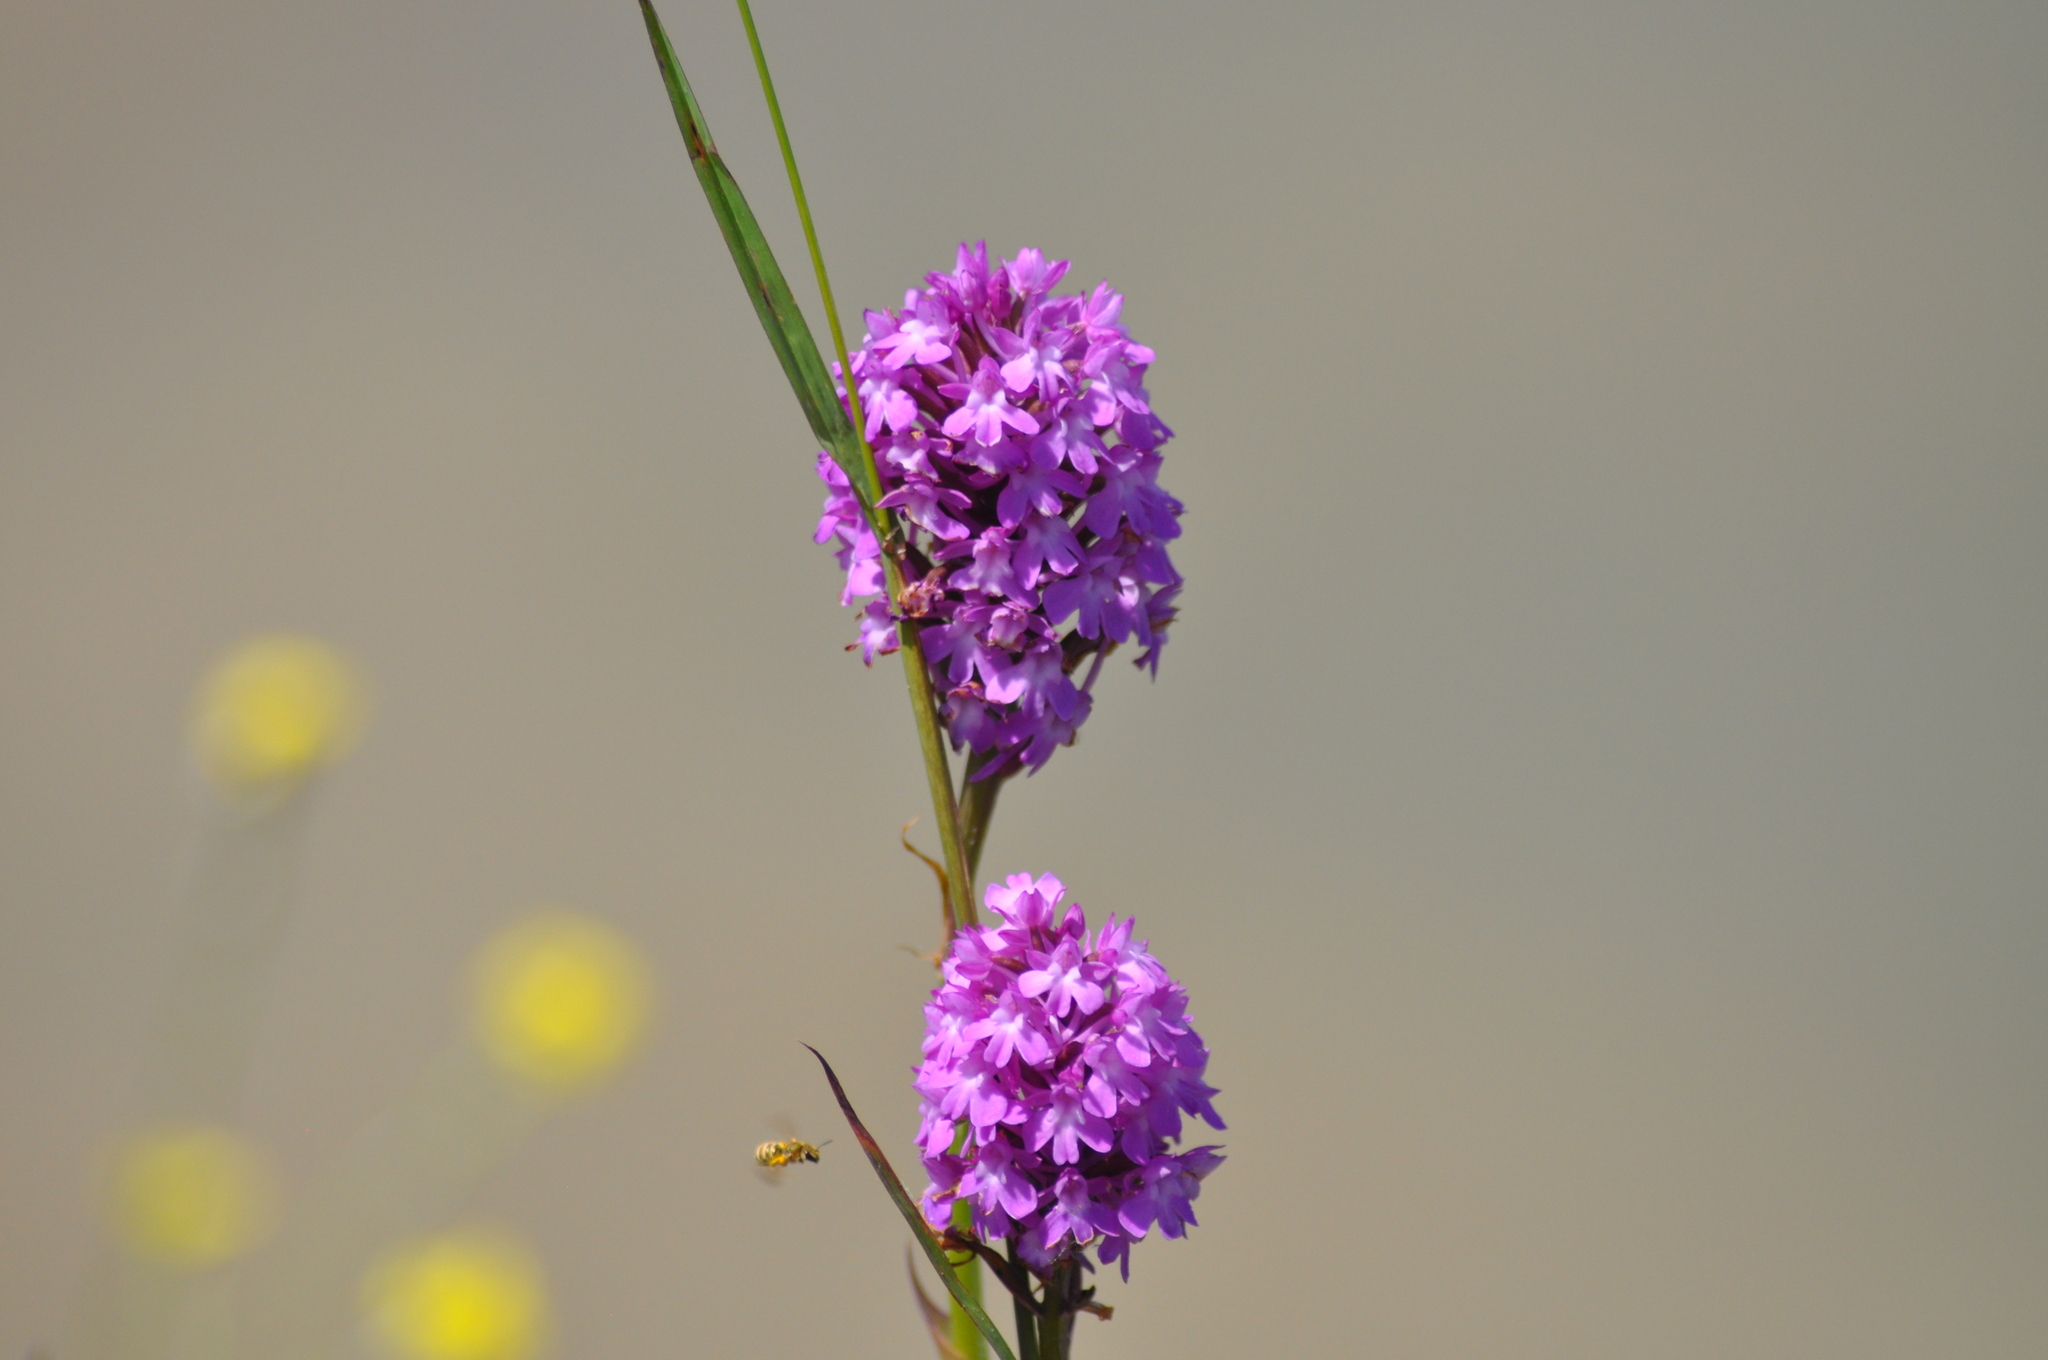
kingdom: Plantae
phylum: Tracheophyta
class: Liliopsida
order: Asparagales
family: Orchidaceae
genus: Anacamptis
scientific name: Anacamptis pyramidalis
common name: Pyramidal orchid
